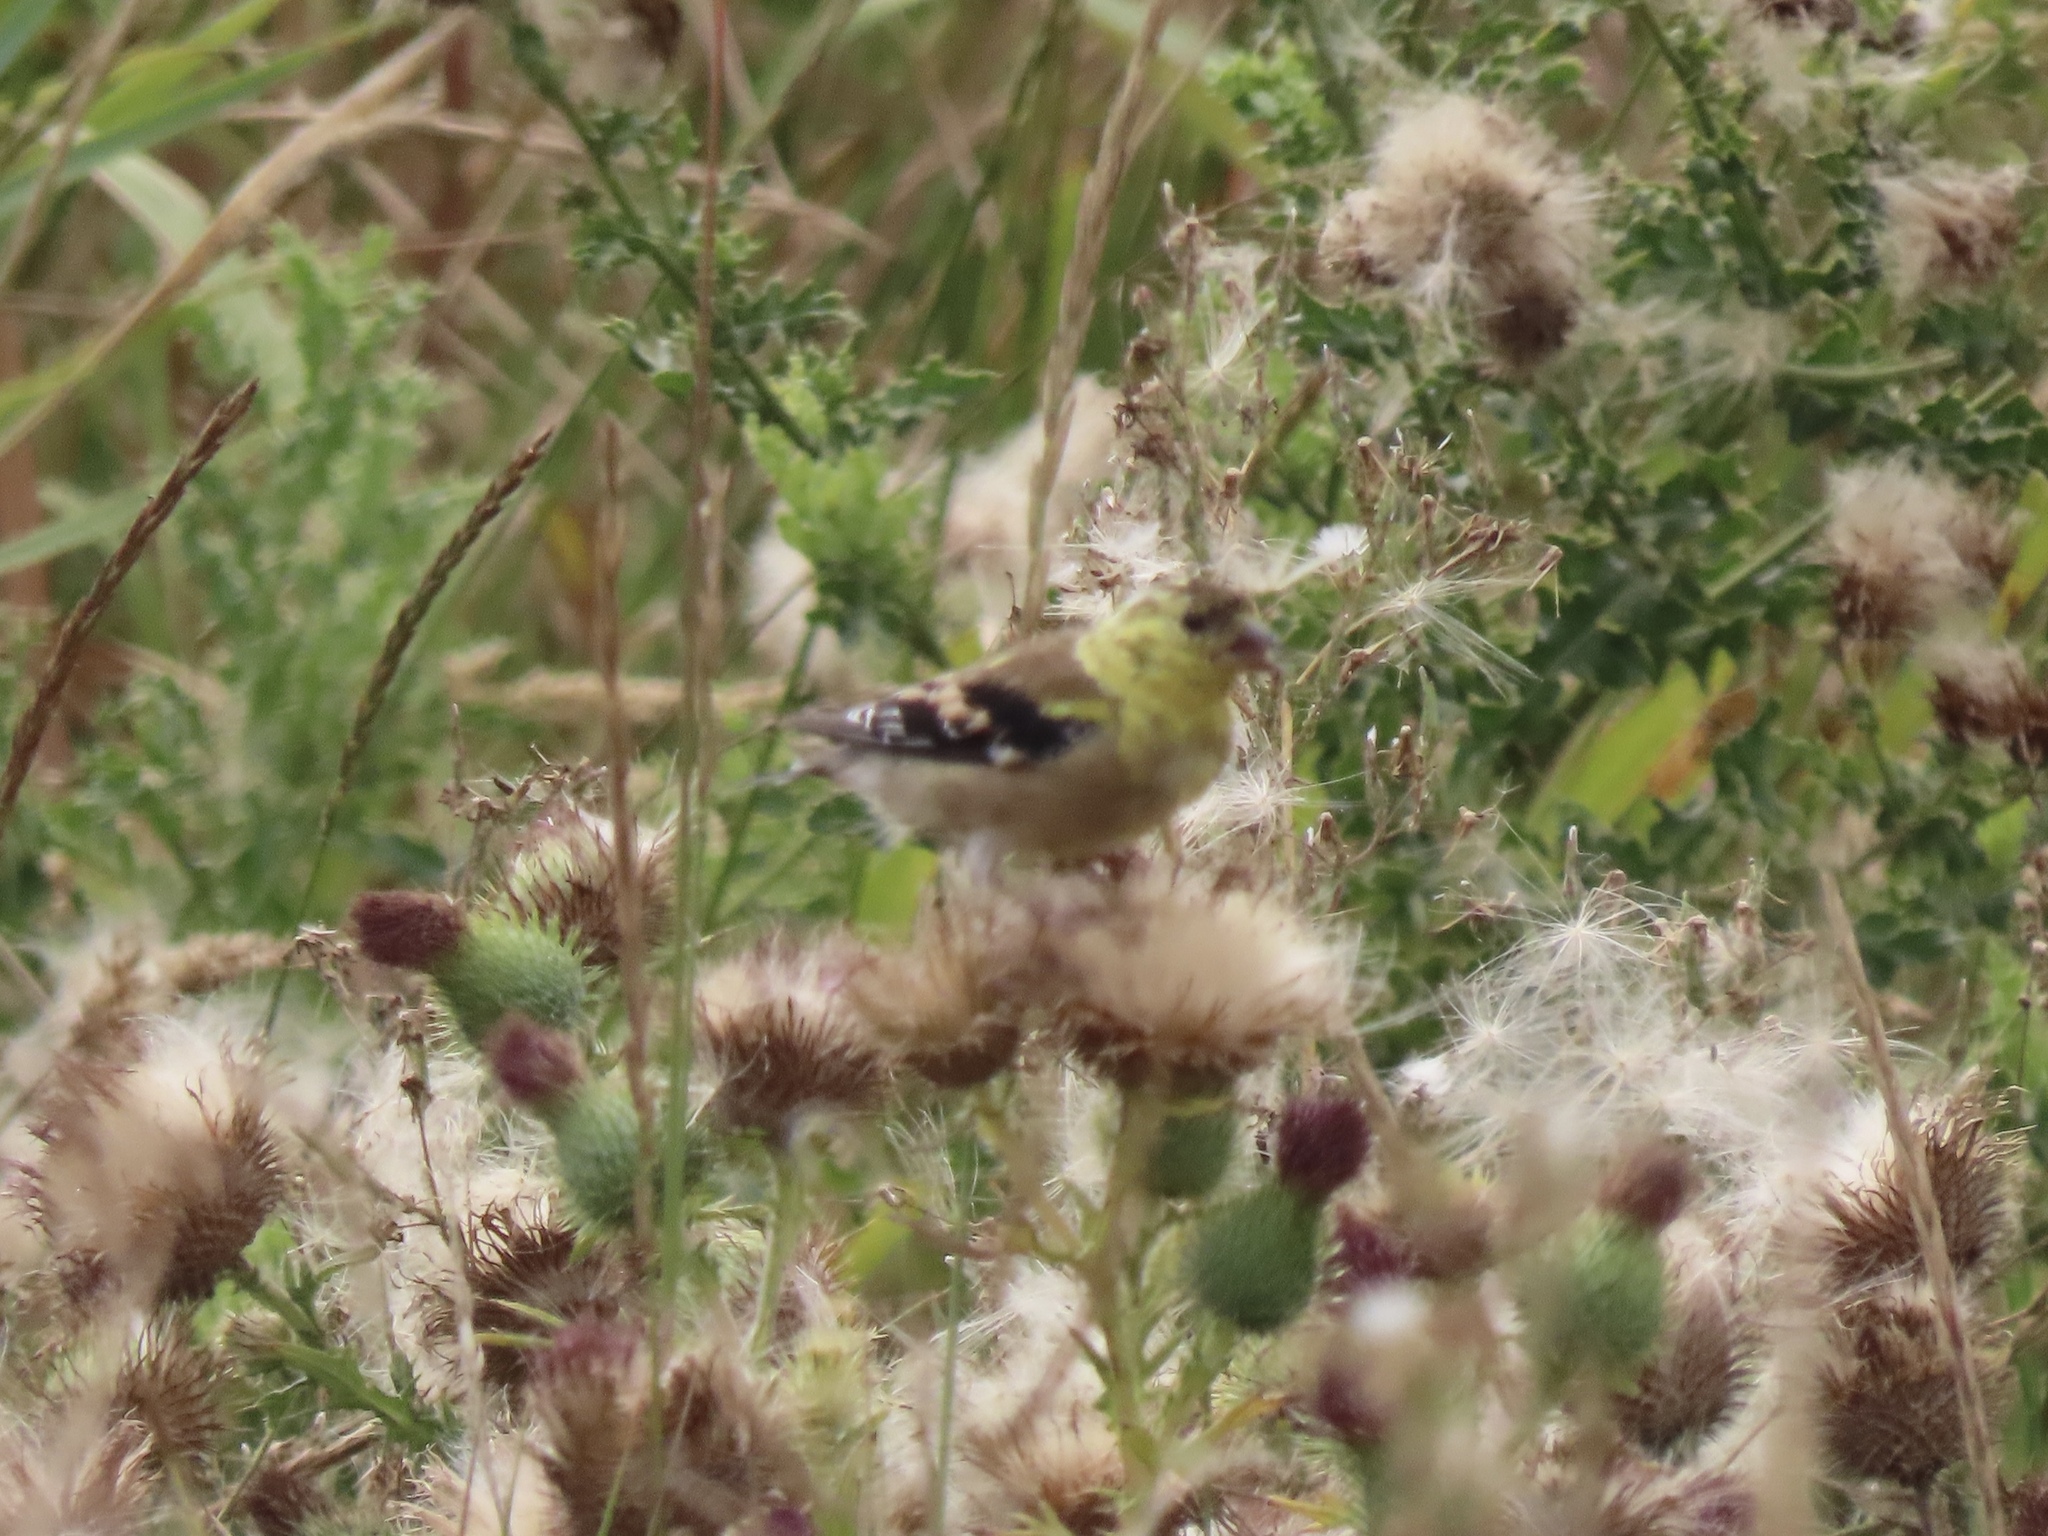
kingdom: Animalia
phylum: Chordata
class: Aves
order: Passeriformes
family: Fringillidae
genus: Spinus
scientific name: Spinus tristis
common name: American goldfinch
